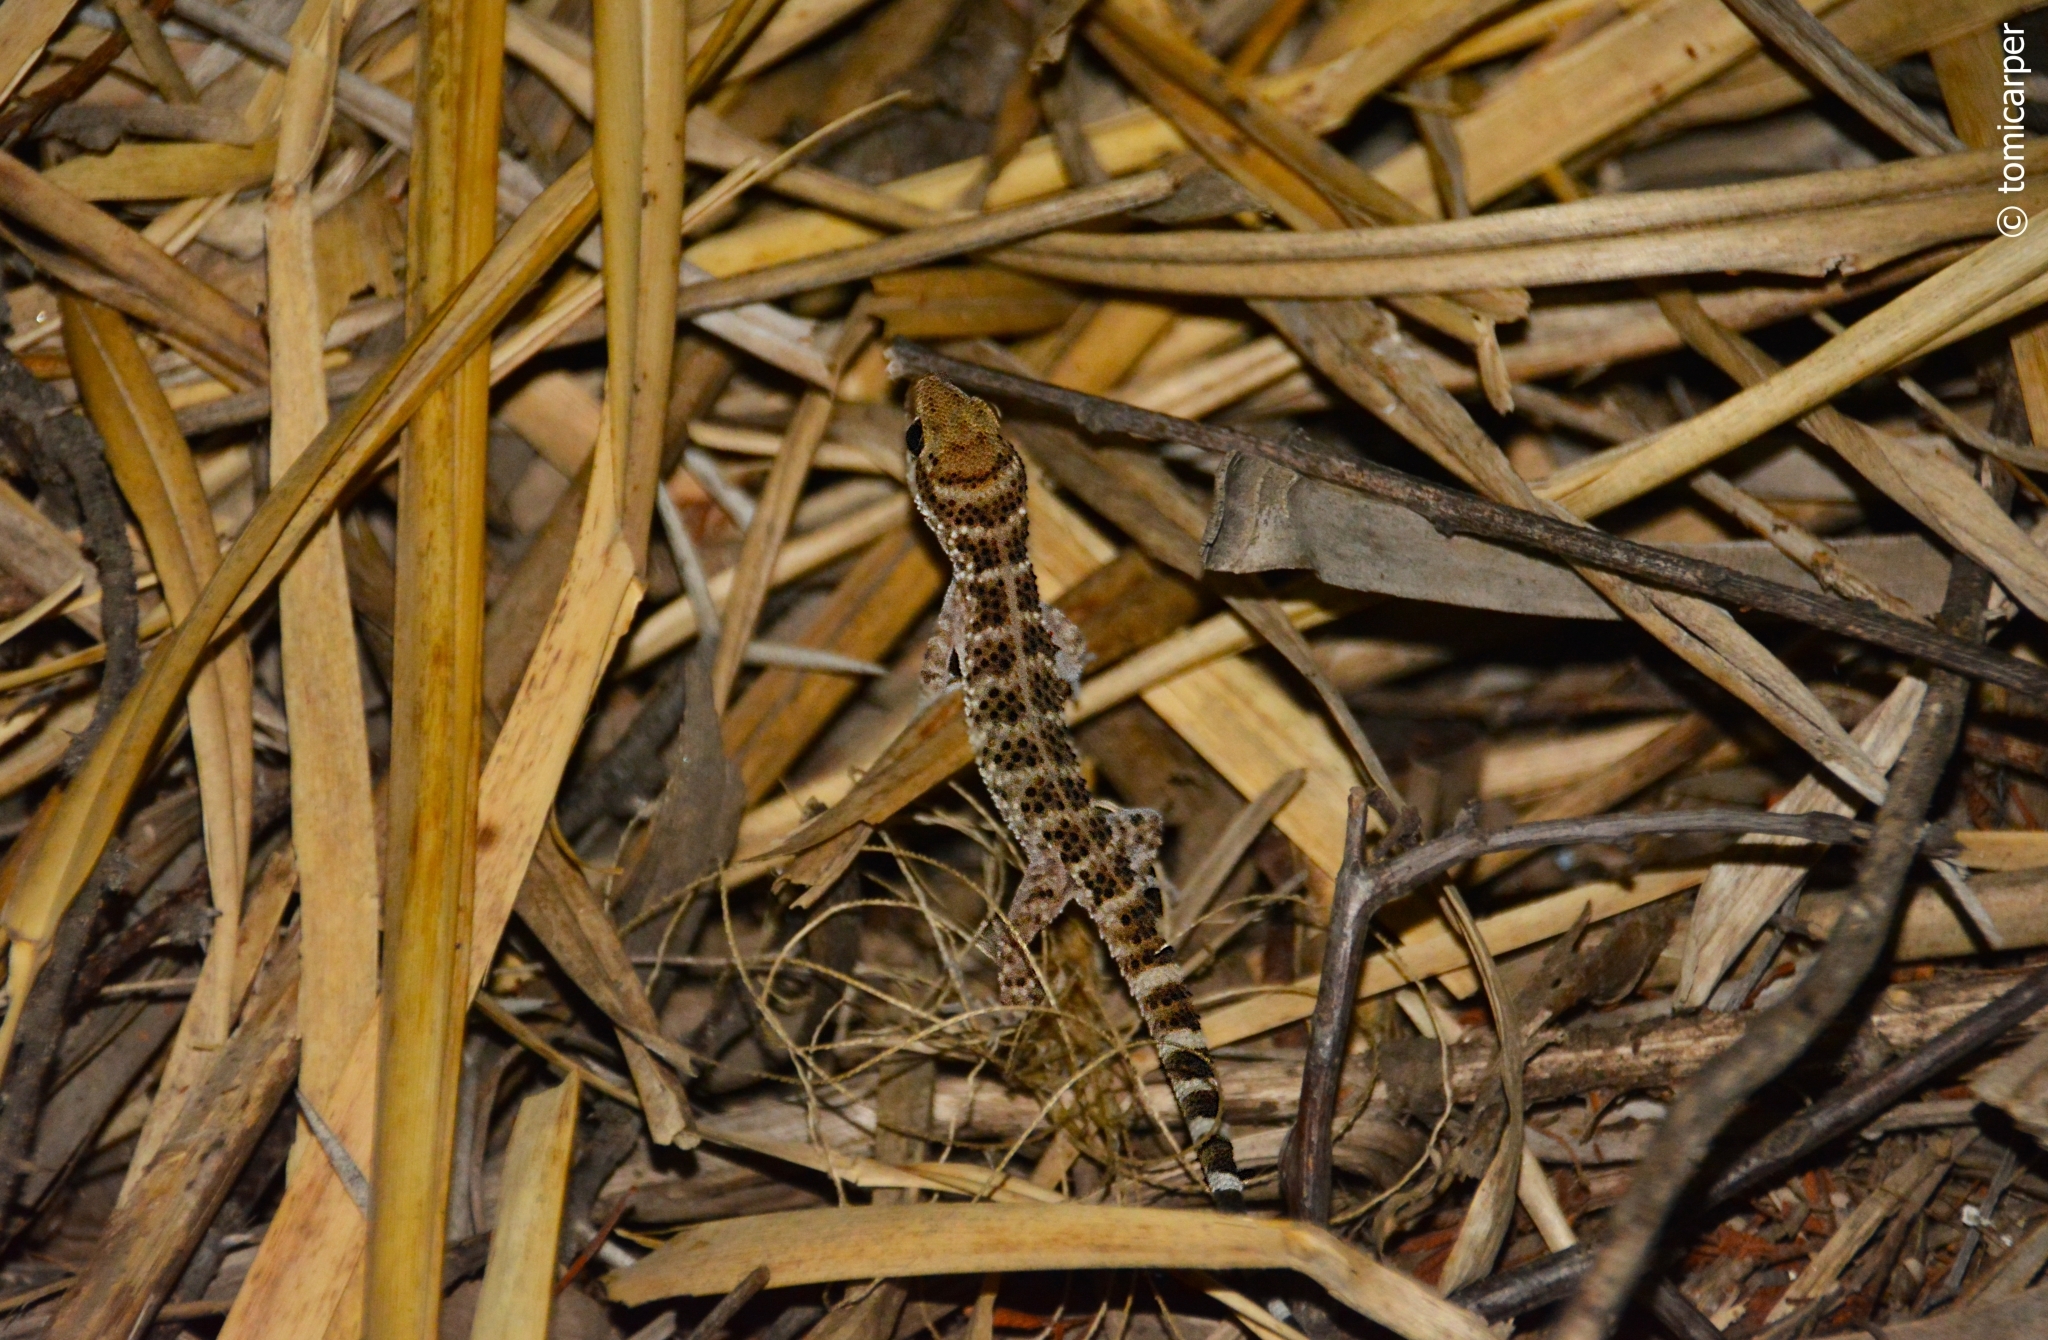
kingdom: Animalia
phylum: Chordata
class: Squamata
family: Phyllodactylidae
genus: Homonota
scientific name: Homonota horrida
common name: South american marked gecko
